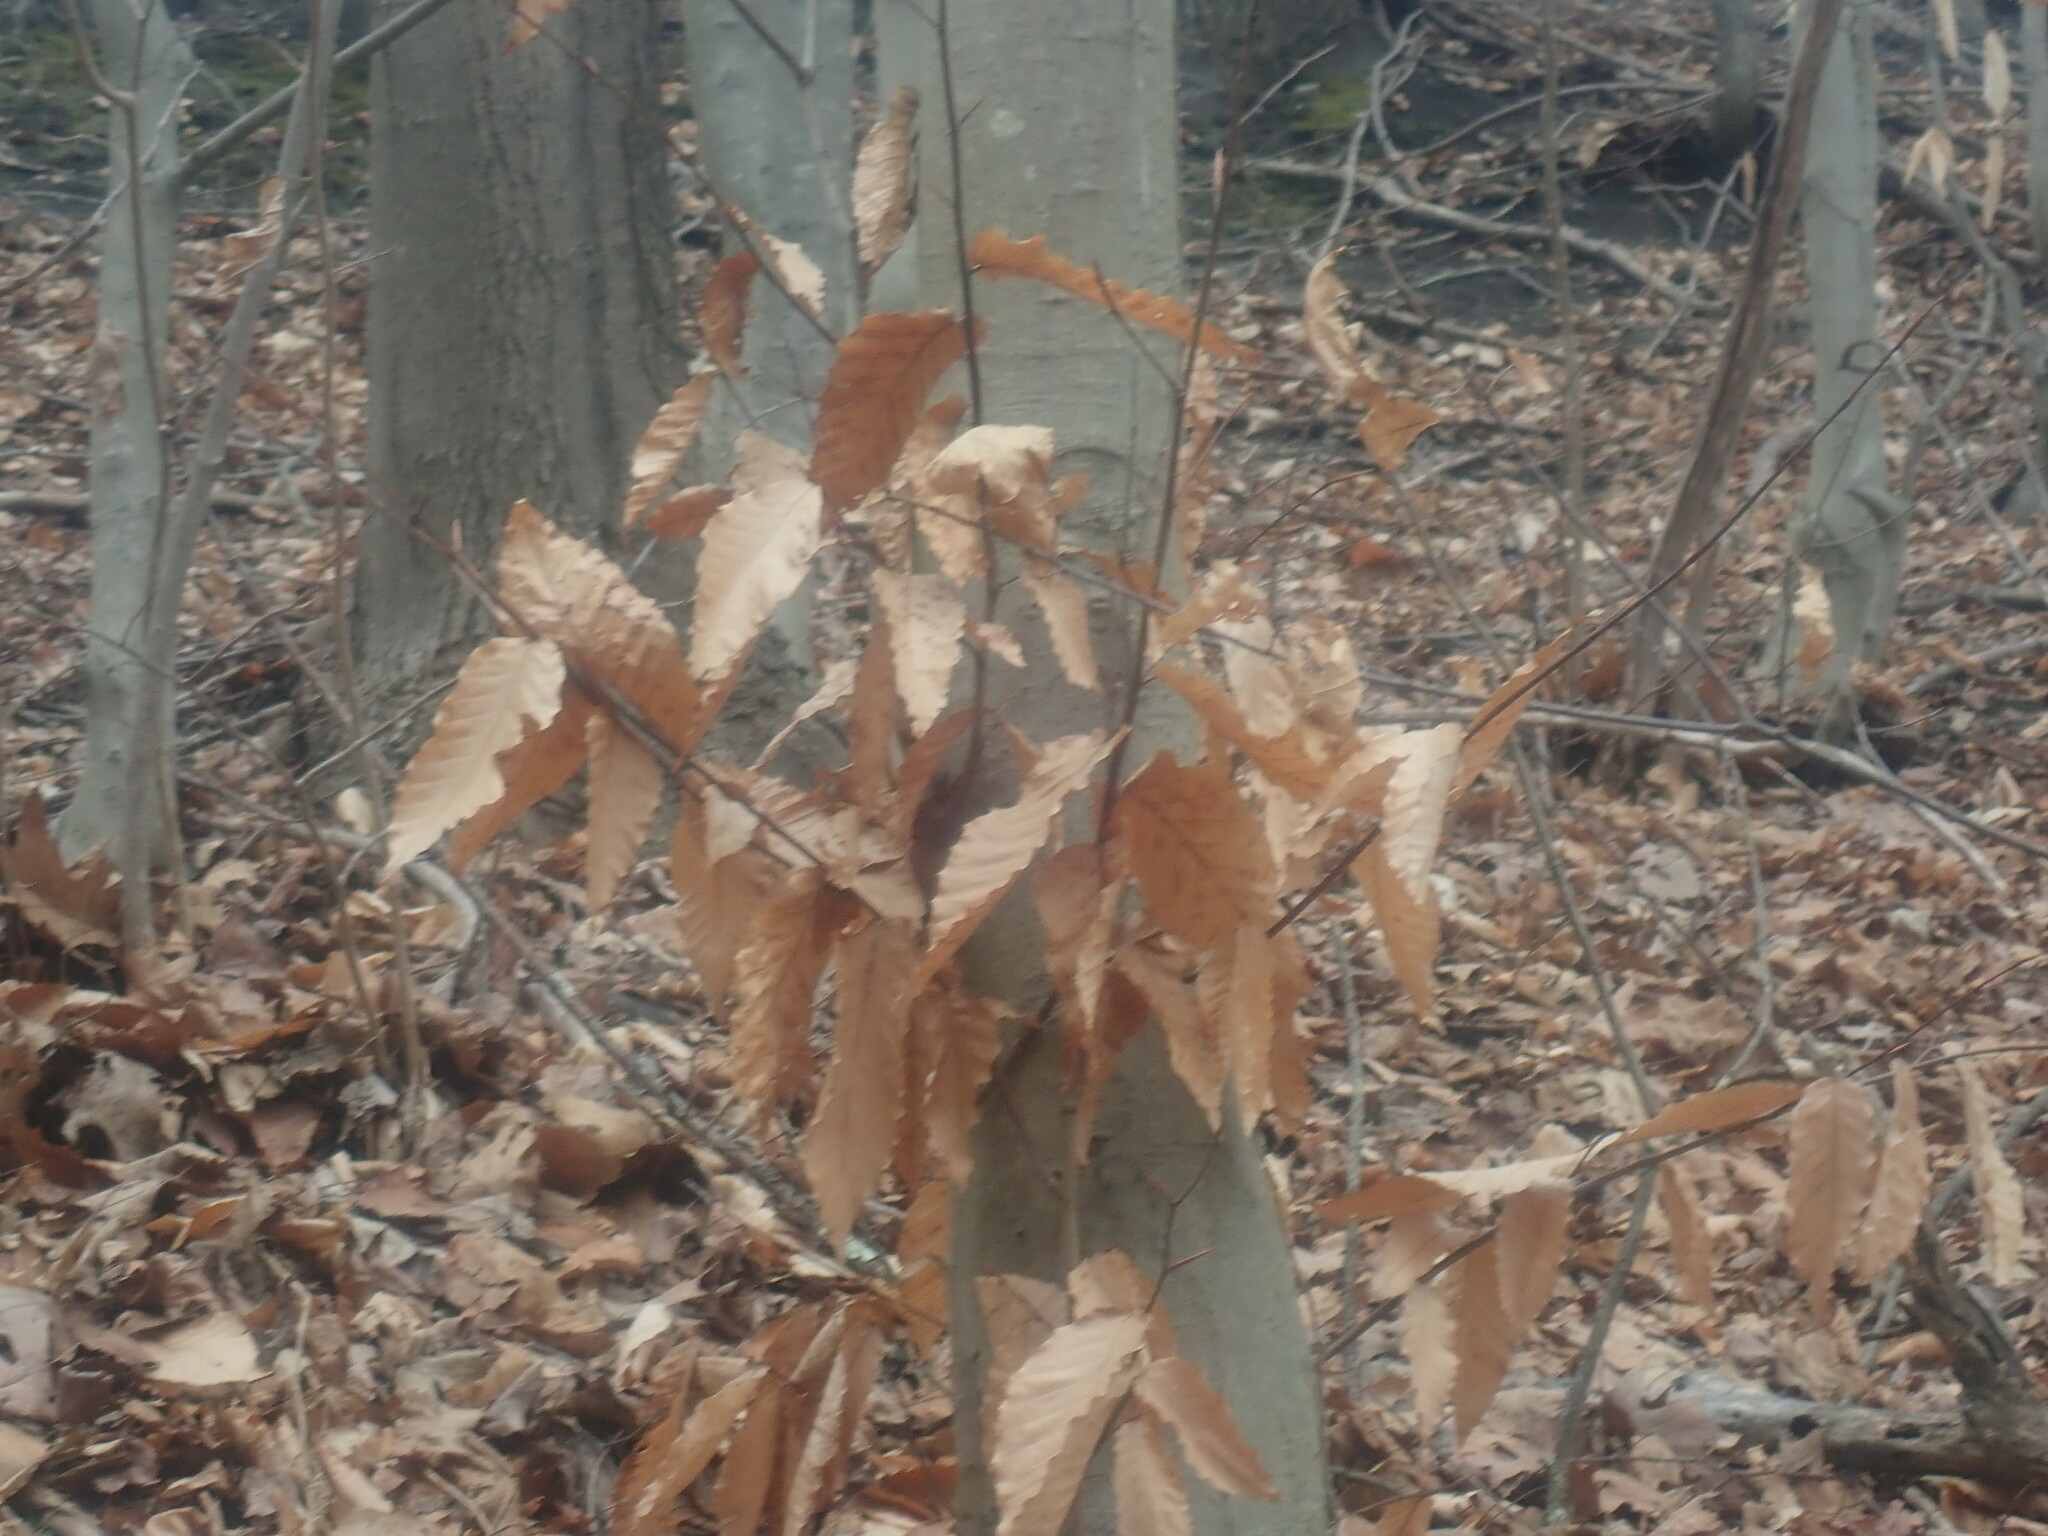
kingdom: Plantae
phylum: Tracheophyta
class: Magnoliopsida
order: Fagales
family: Fagaceae
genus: Fagus
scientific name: Fagus grandifolia
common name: American beech
